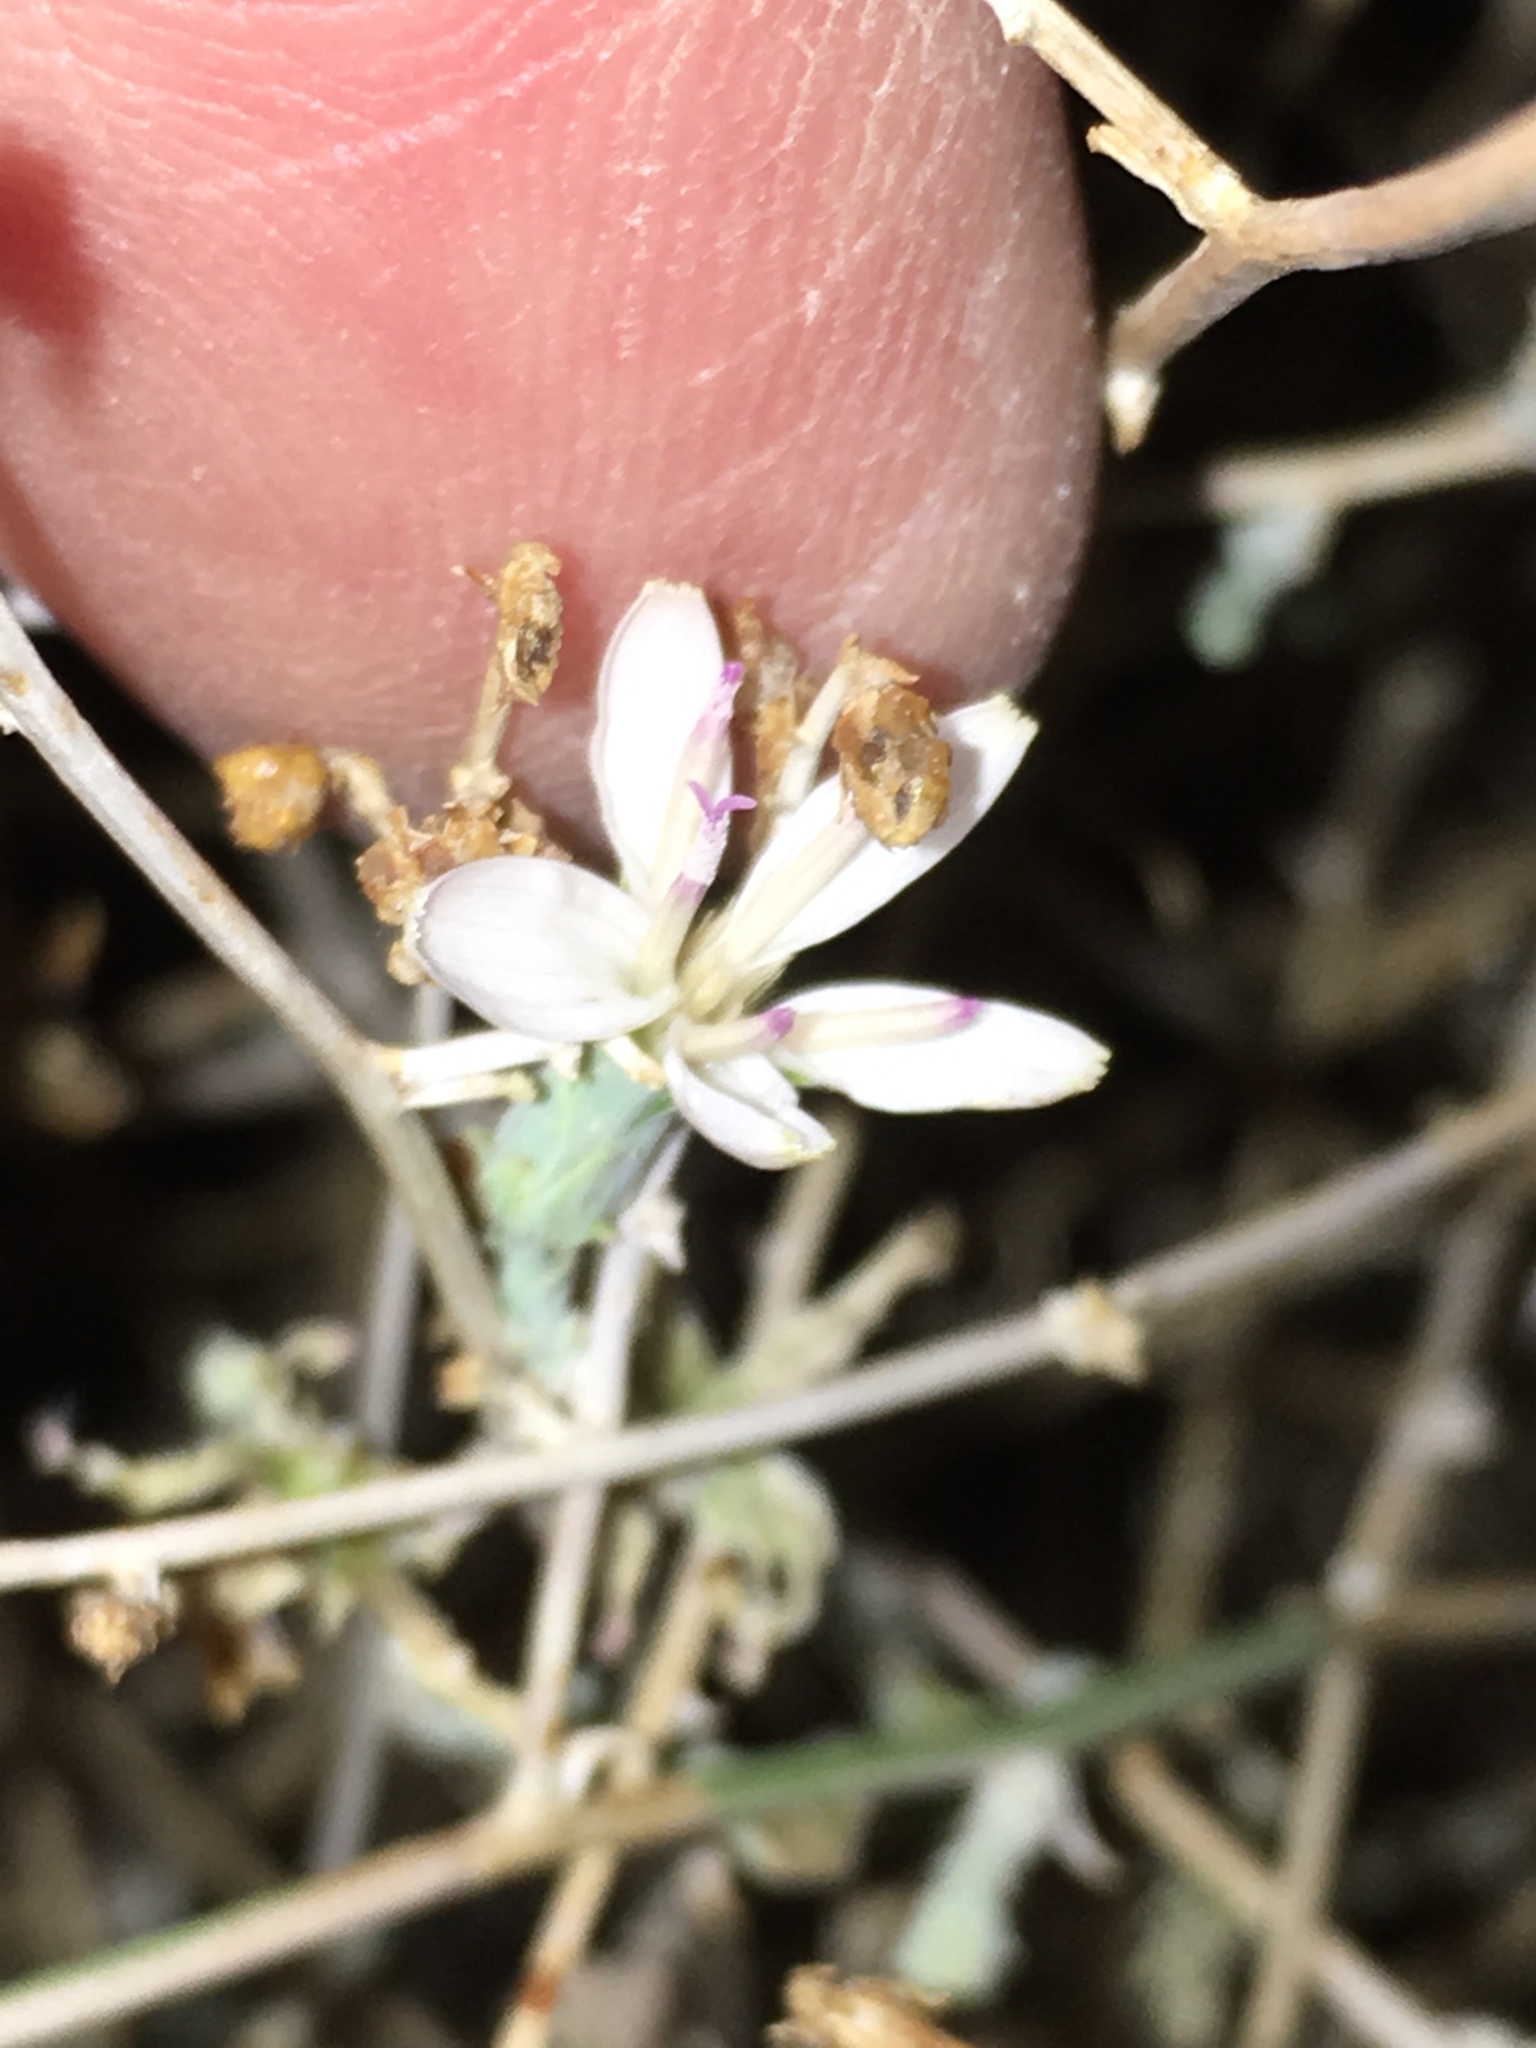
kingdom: Plantae
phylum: Tracheophyta
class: Magnoliopsida
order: Asterales
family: Asteraceae
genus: Stephanomeria
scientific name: Stephanomeria pauciflora
